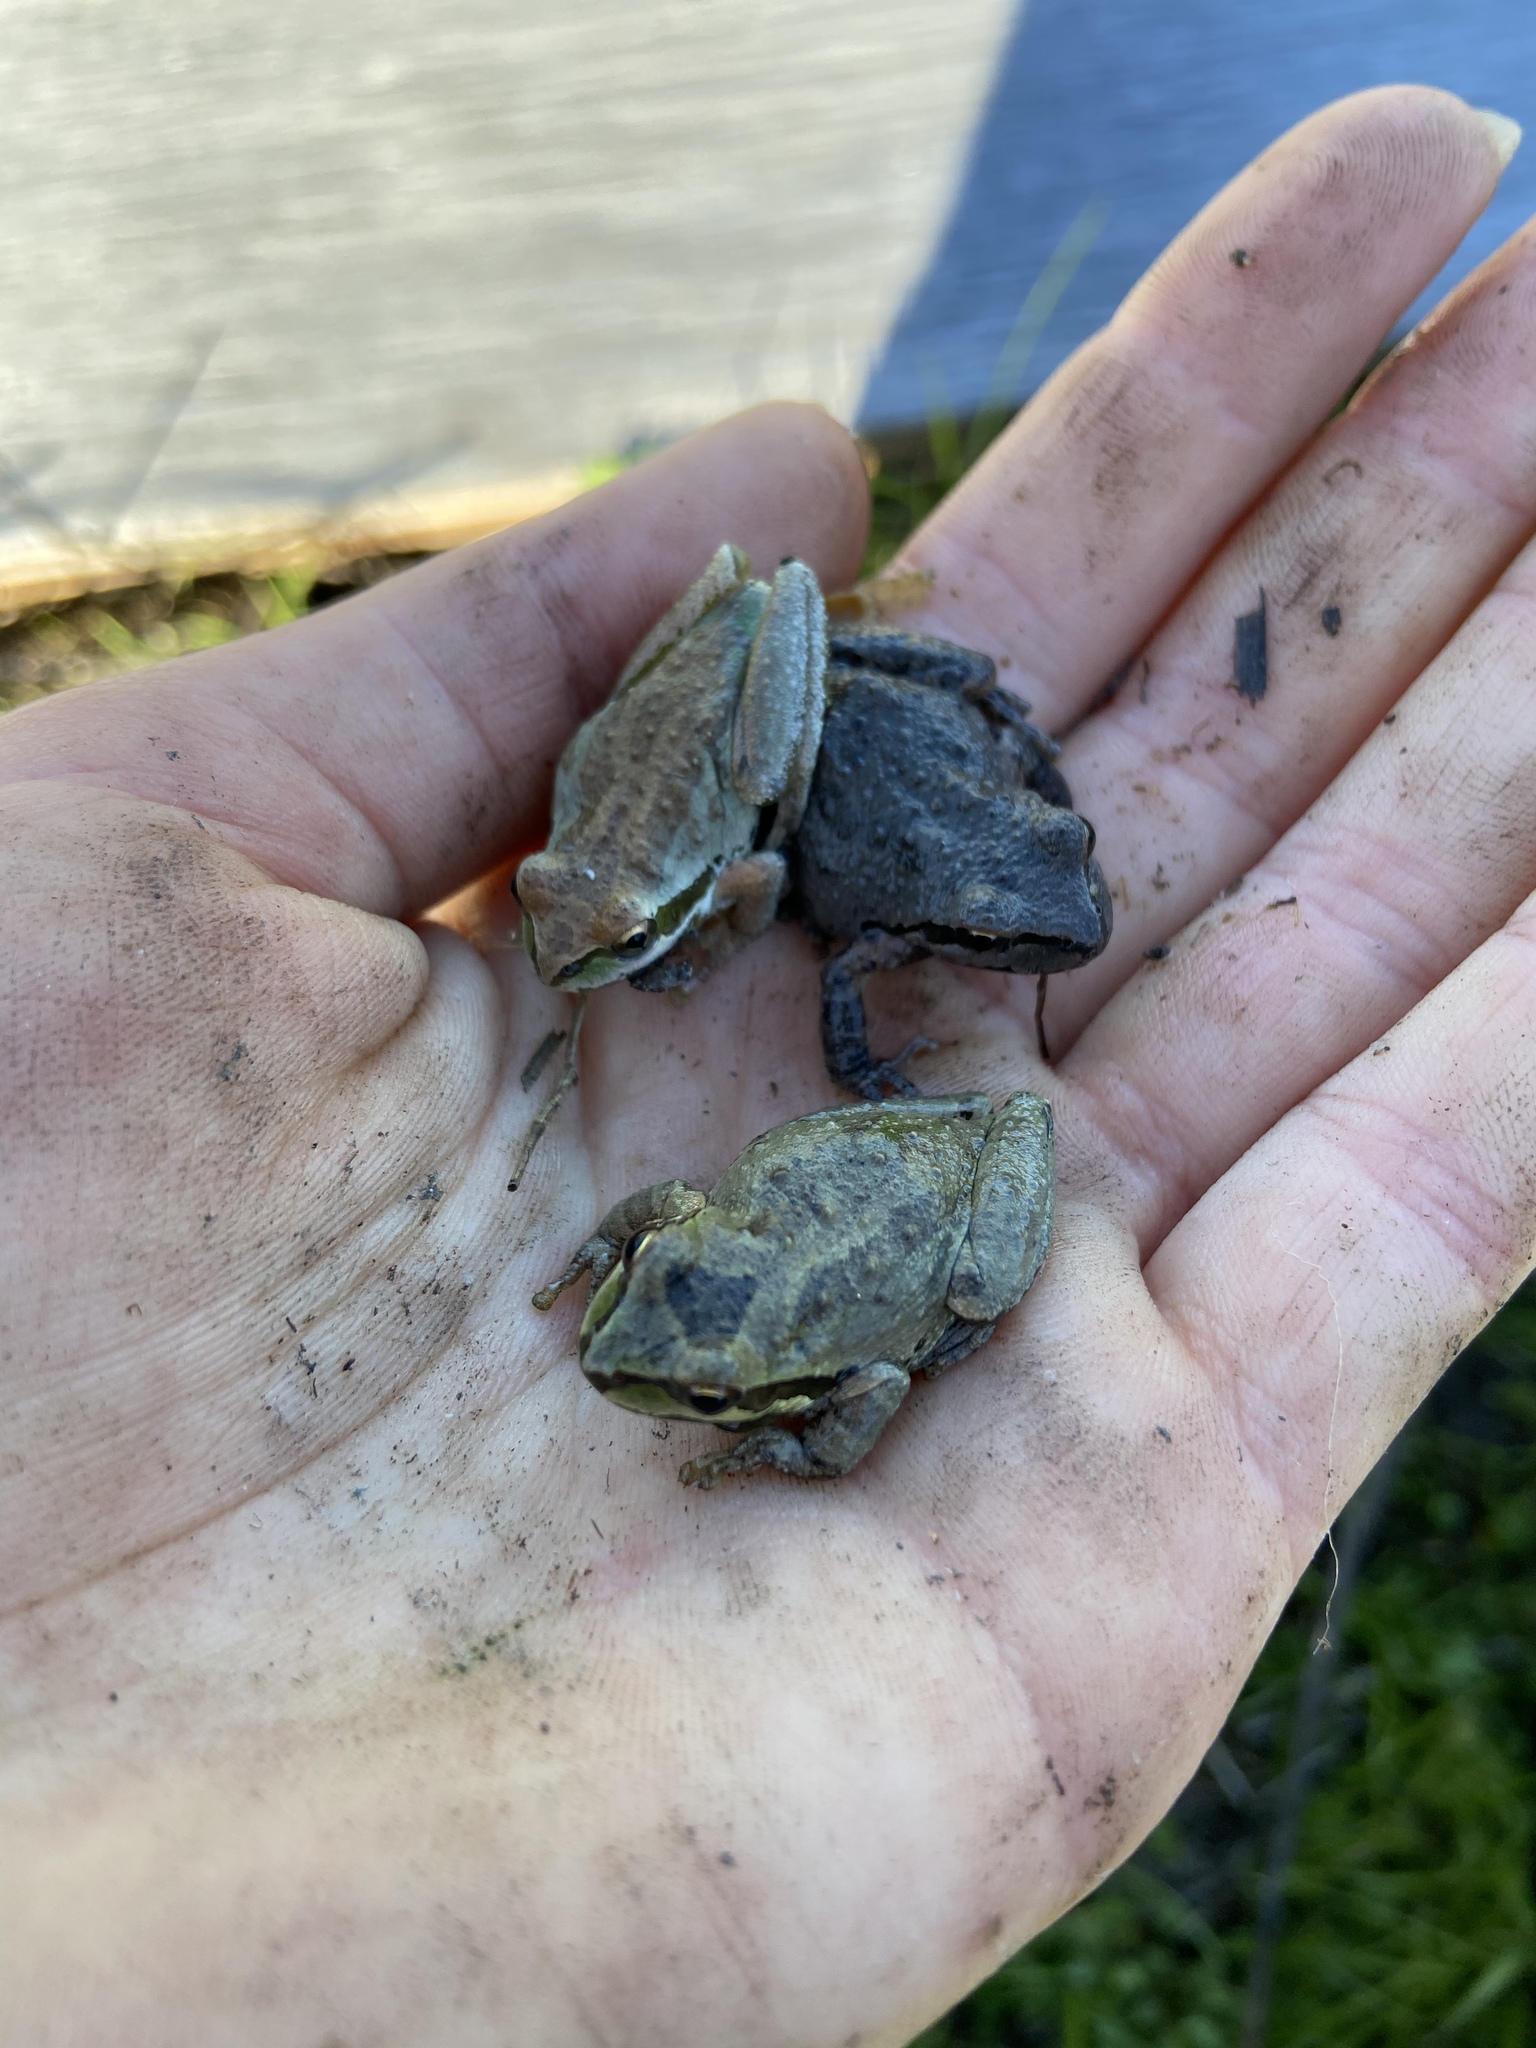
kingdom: Animalia
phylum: Chordata
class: Amphibia
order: Anura
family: Hylidae
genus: Pseudacris
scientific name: Pseudacris regilla
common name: Pacific chorus frog
